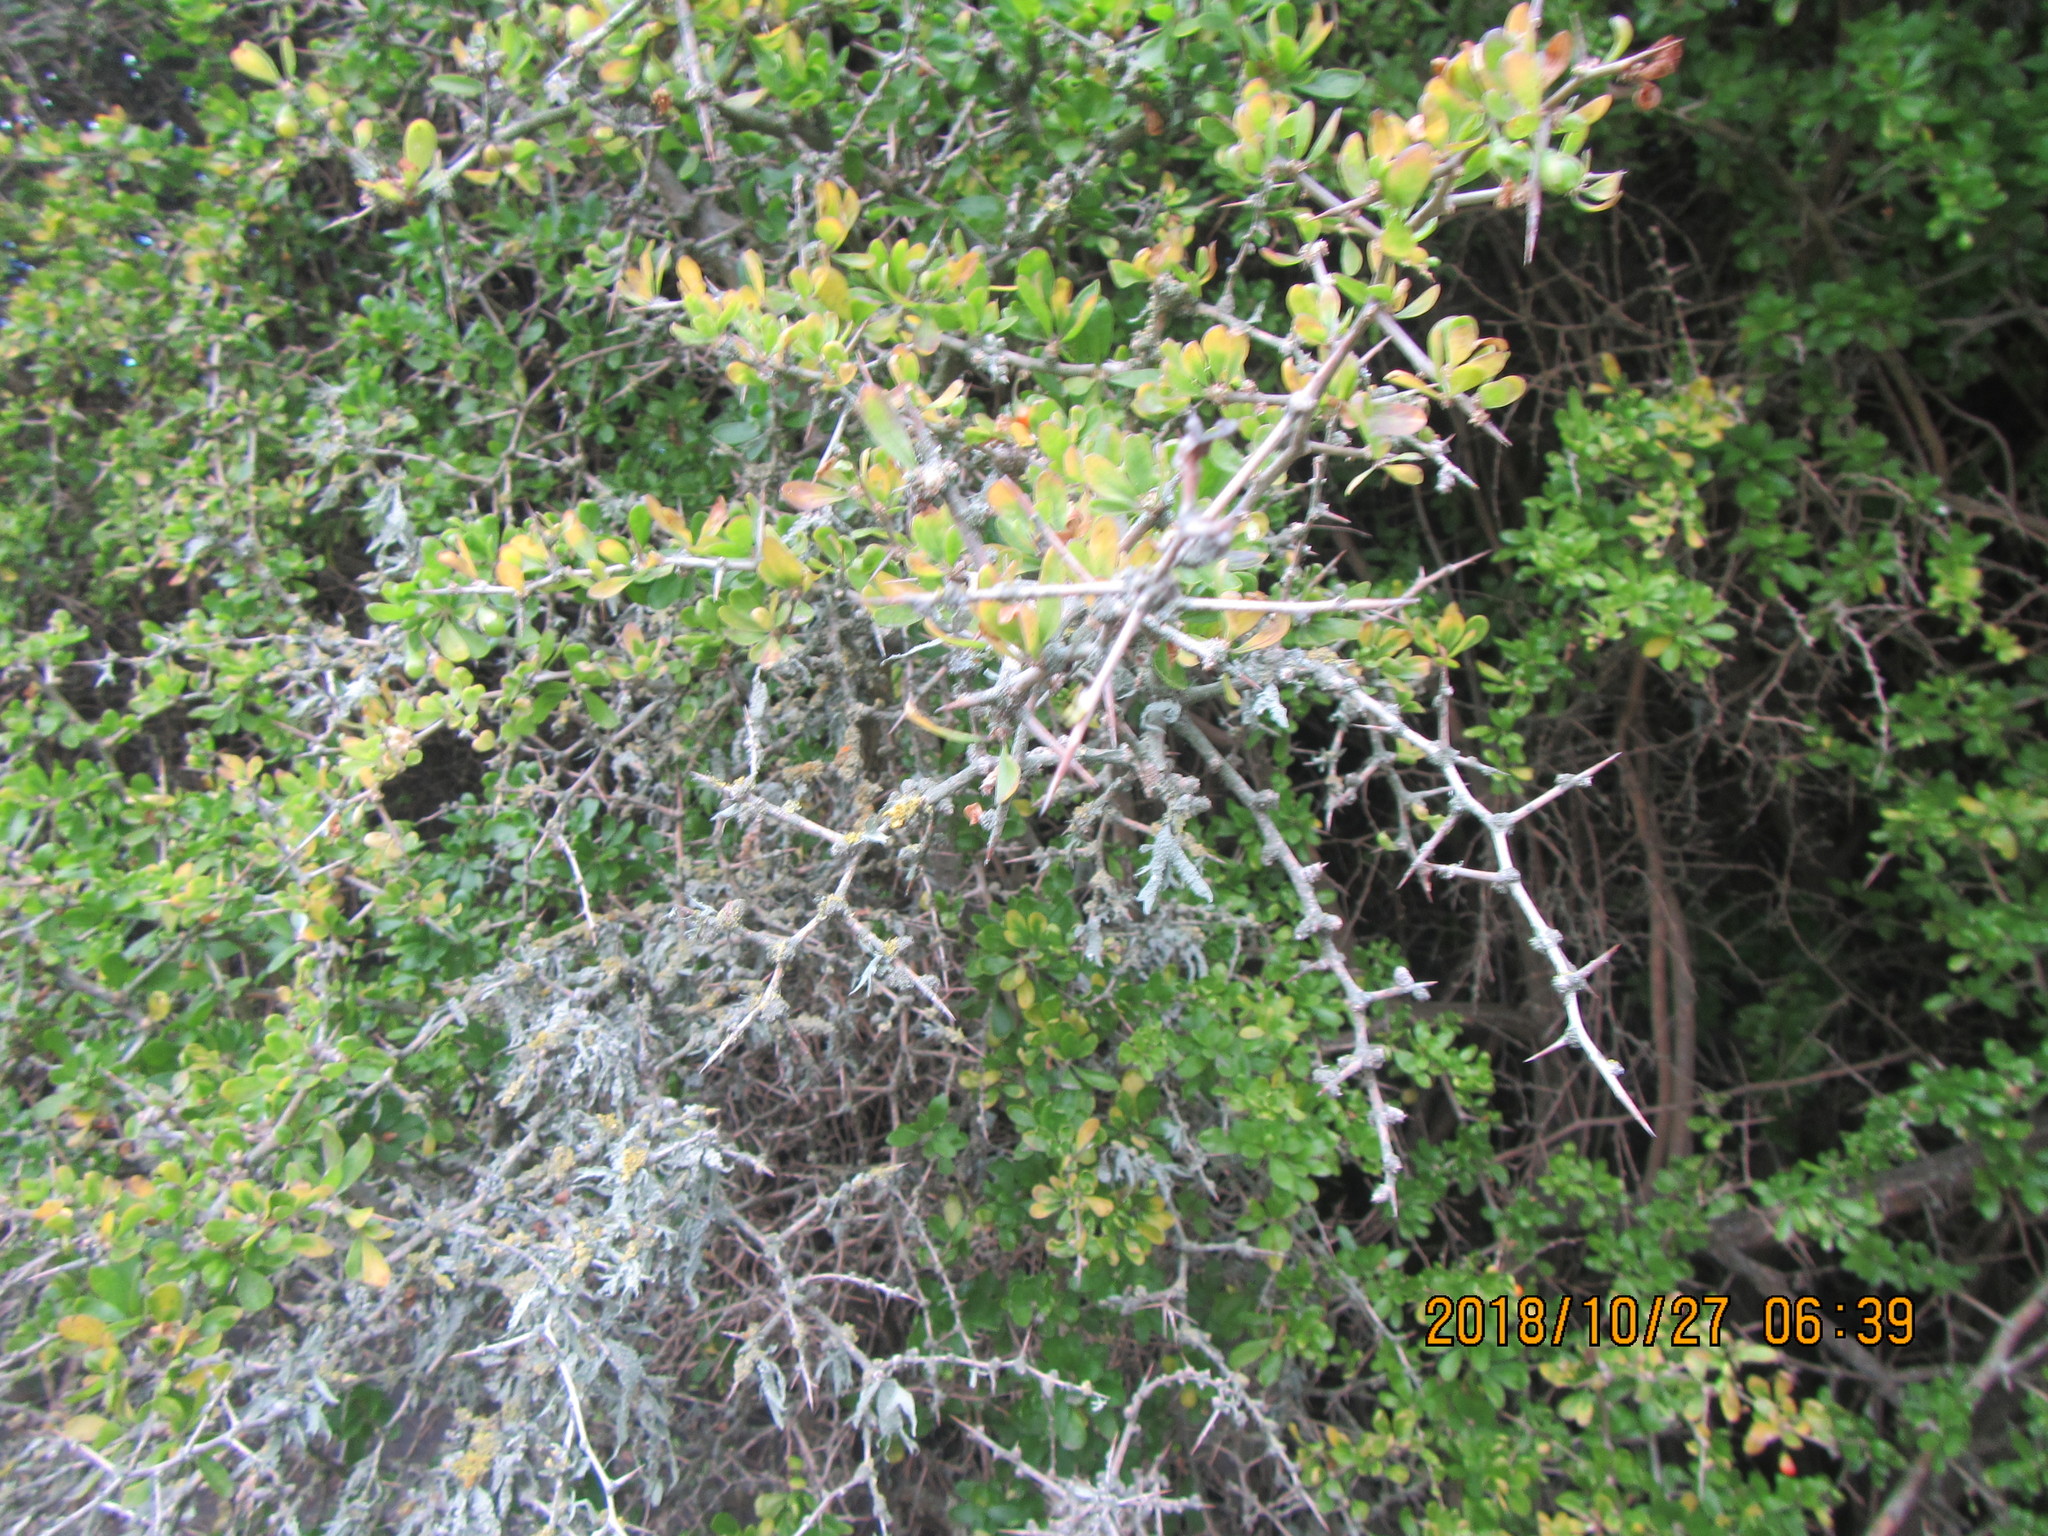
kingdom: Plantae
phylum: Tracheophyta
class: Magnoliopsida
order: Solanales
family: Solanaceae
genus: Lycium
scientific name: Lycium ferocissimum
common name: African boxthorn
